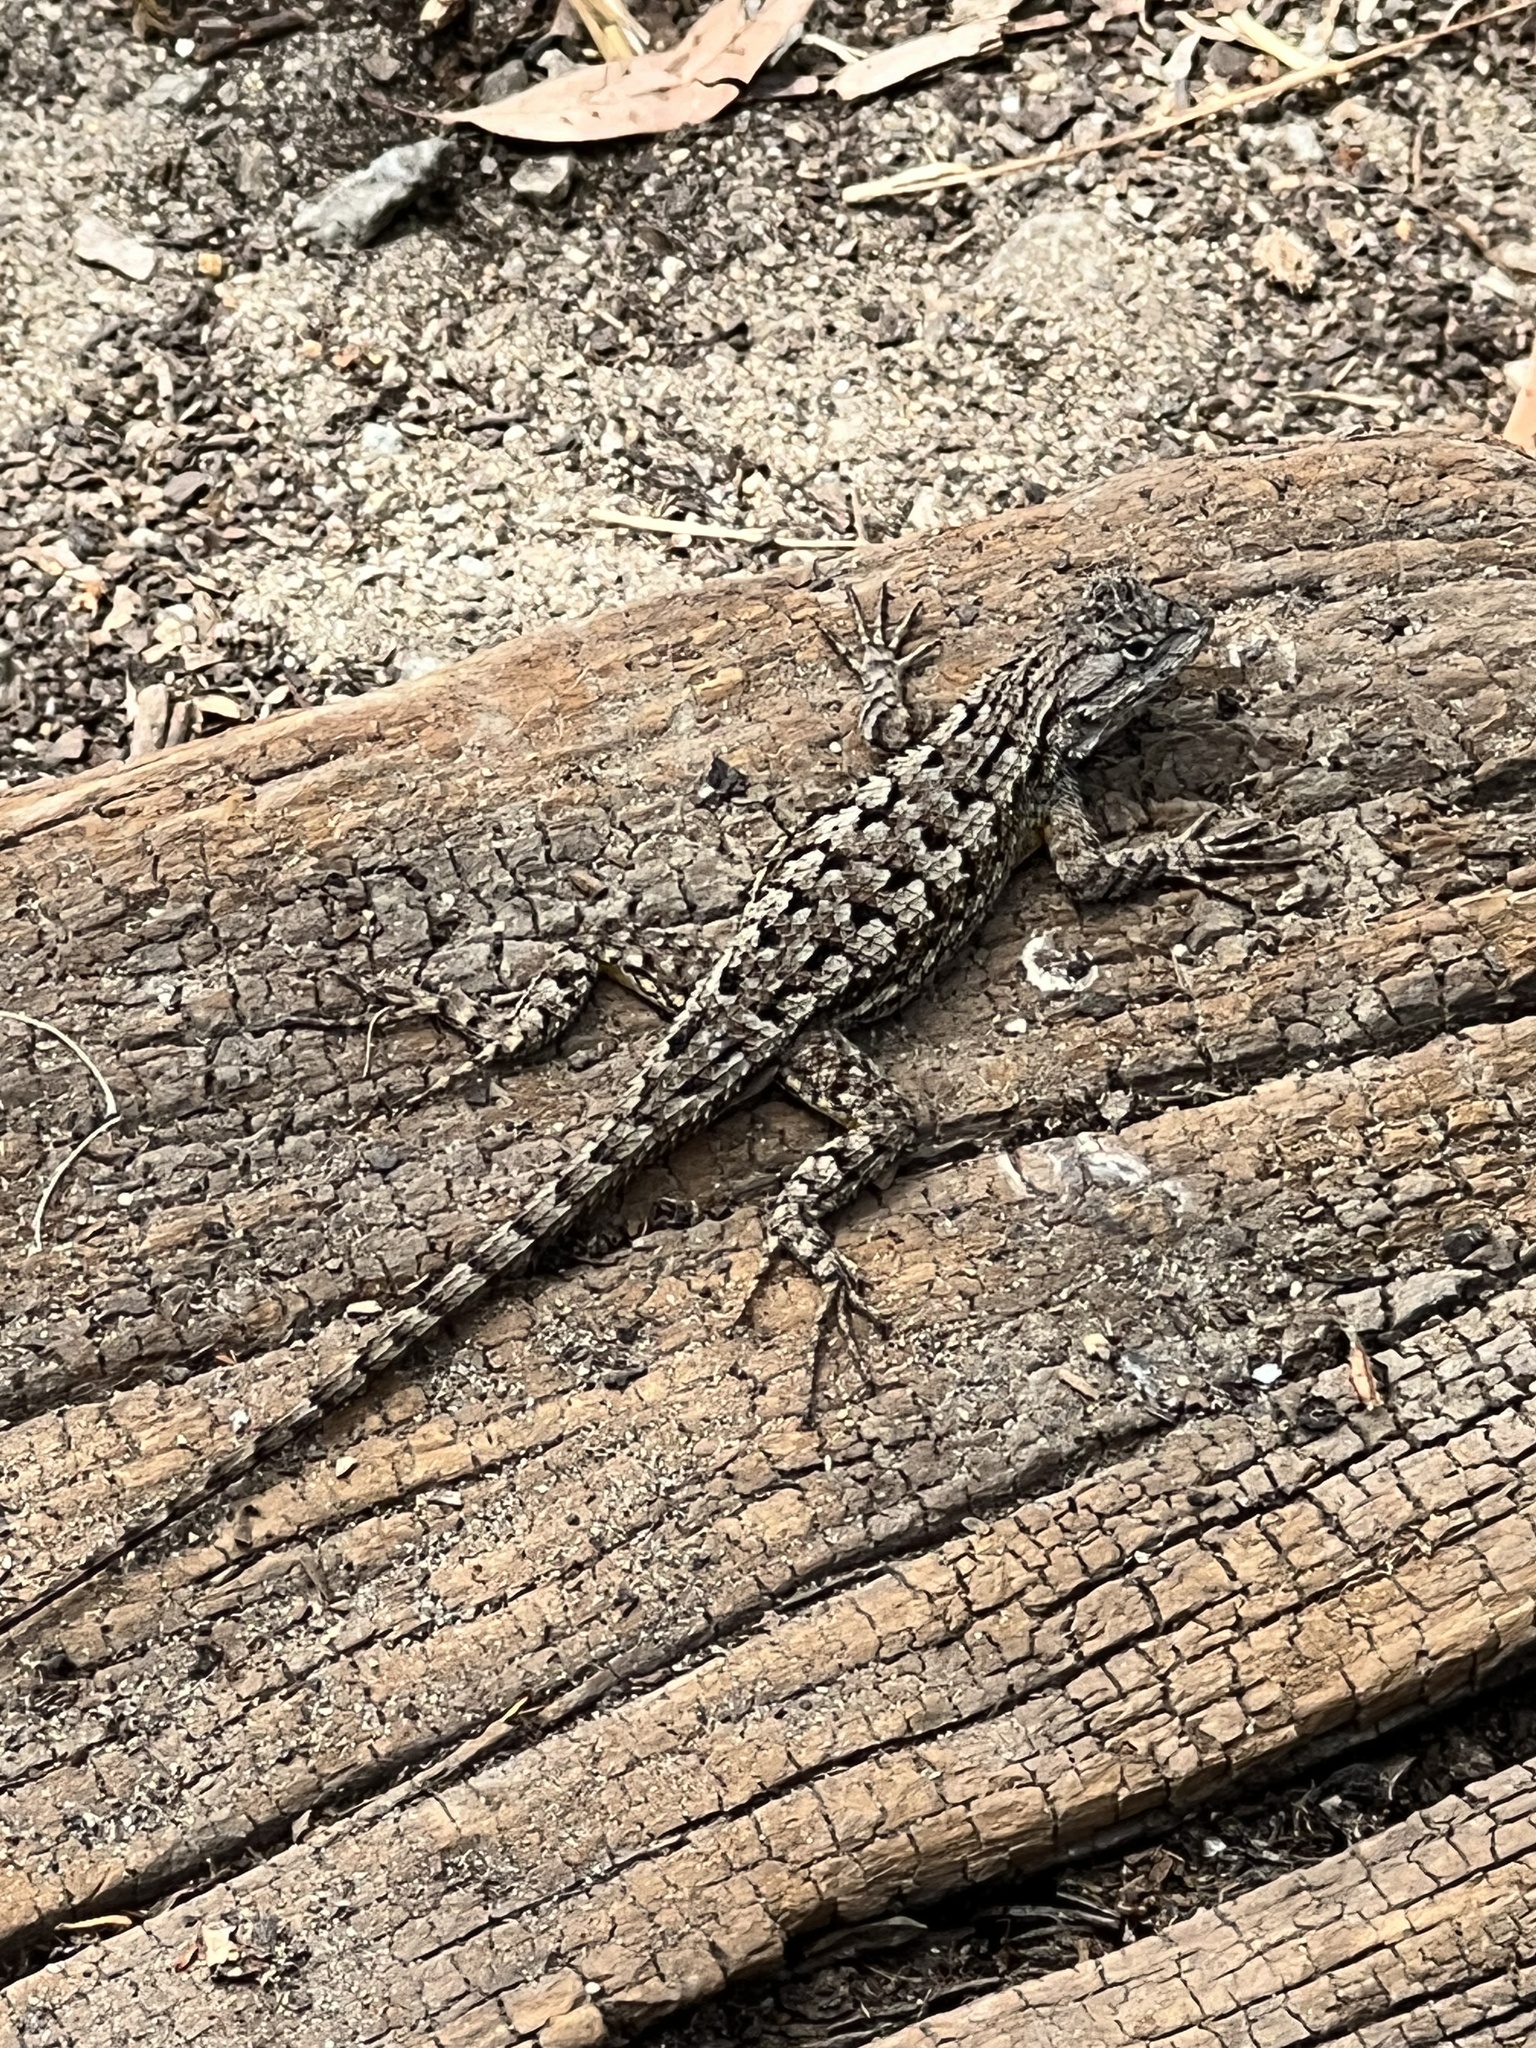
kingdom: Animalia
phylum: Chordata
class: Squamata
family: Phrynosomatidae
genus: Sceloporus
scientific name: Sceloporus occidentalis
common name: Western fence lizard
